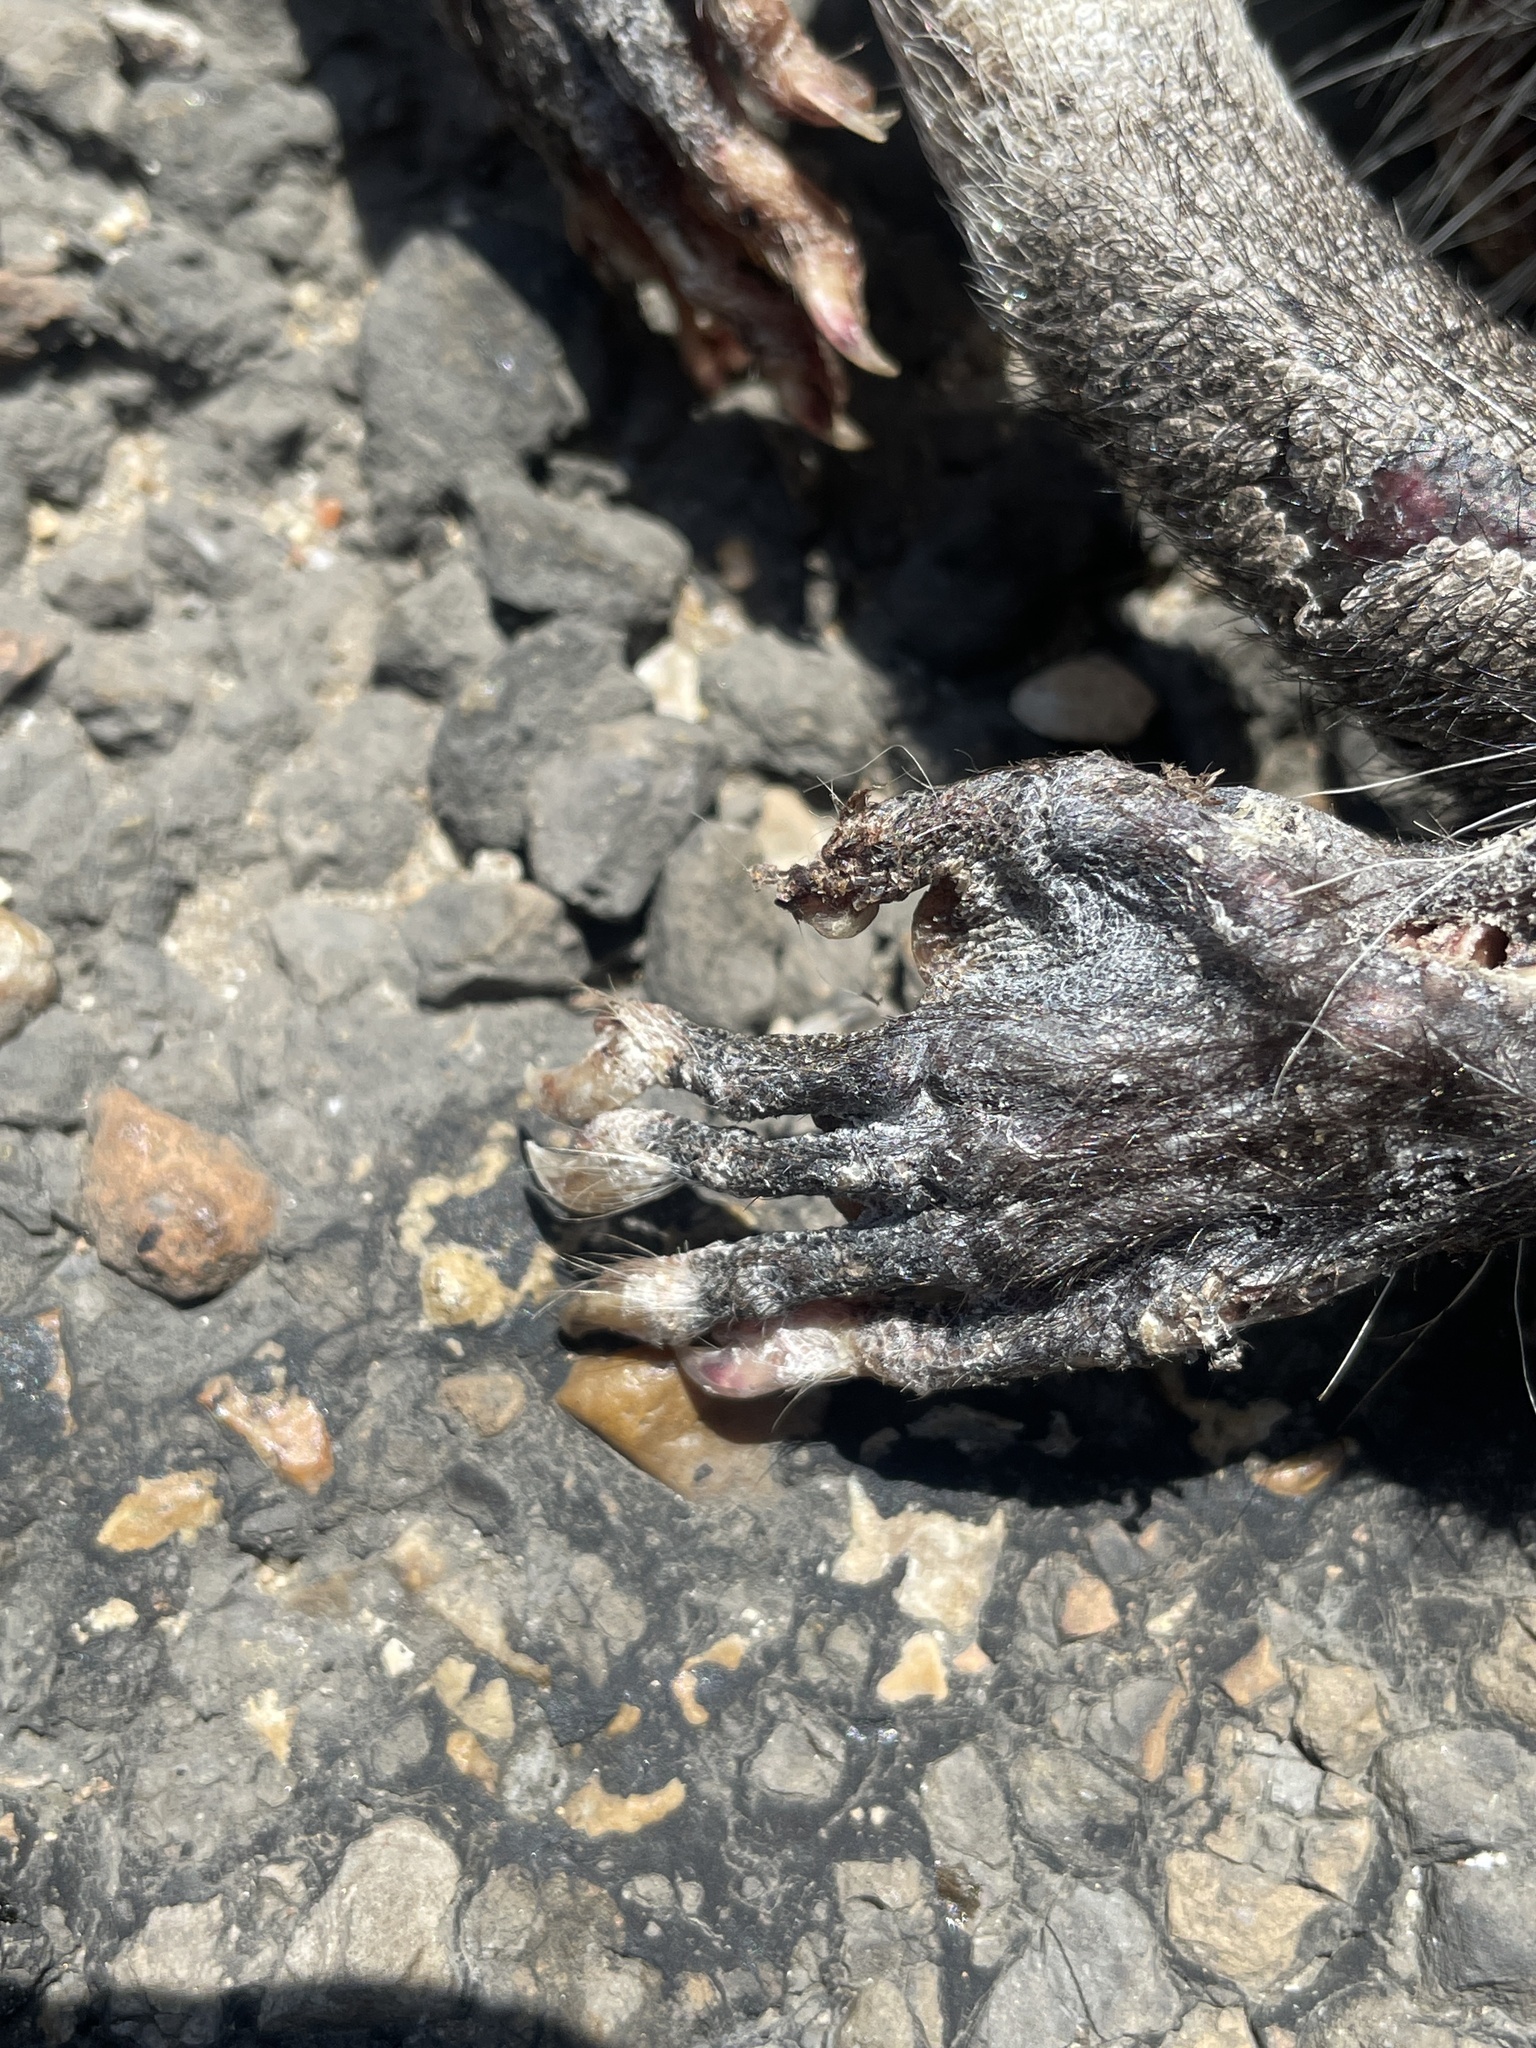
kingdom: Animalia
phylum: Chordata
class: Mammalia
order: Didelphimorphia
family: Didelphidae
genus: Didelphis
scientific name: Didelphis virginiana
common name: Virginia opossum
